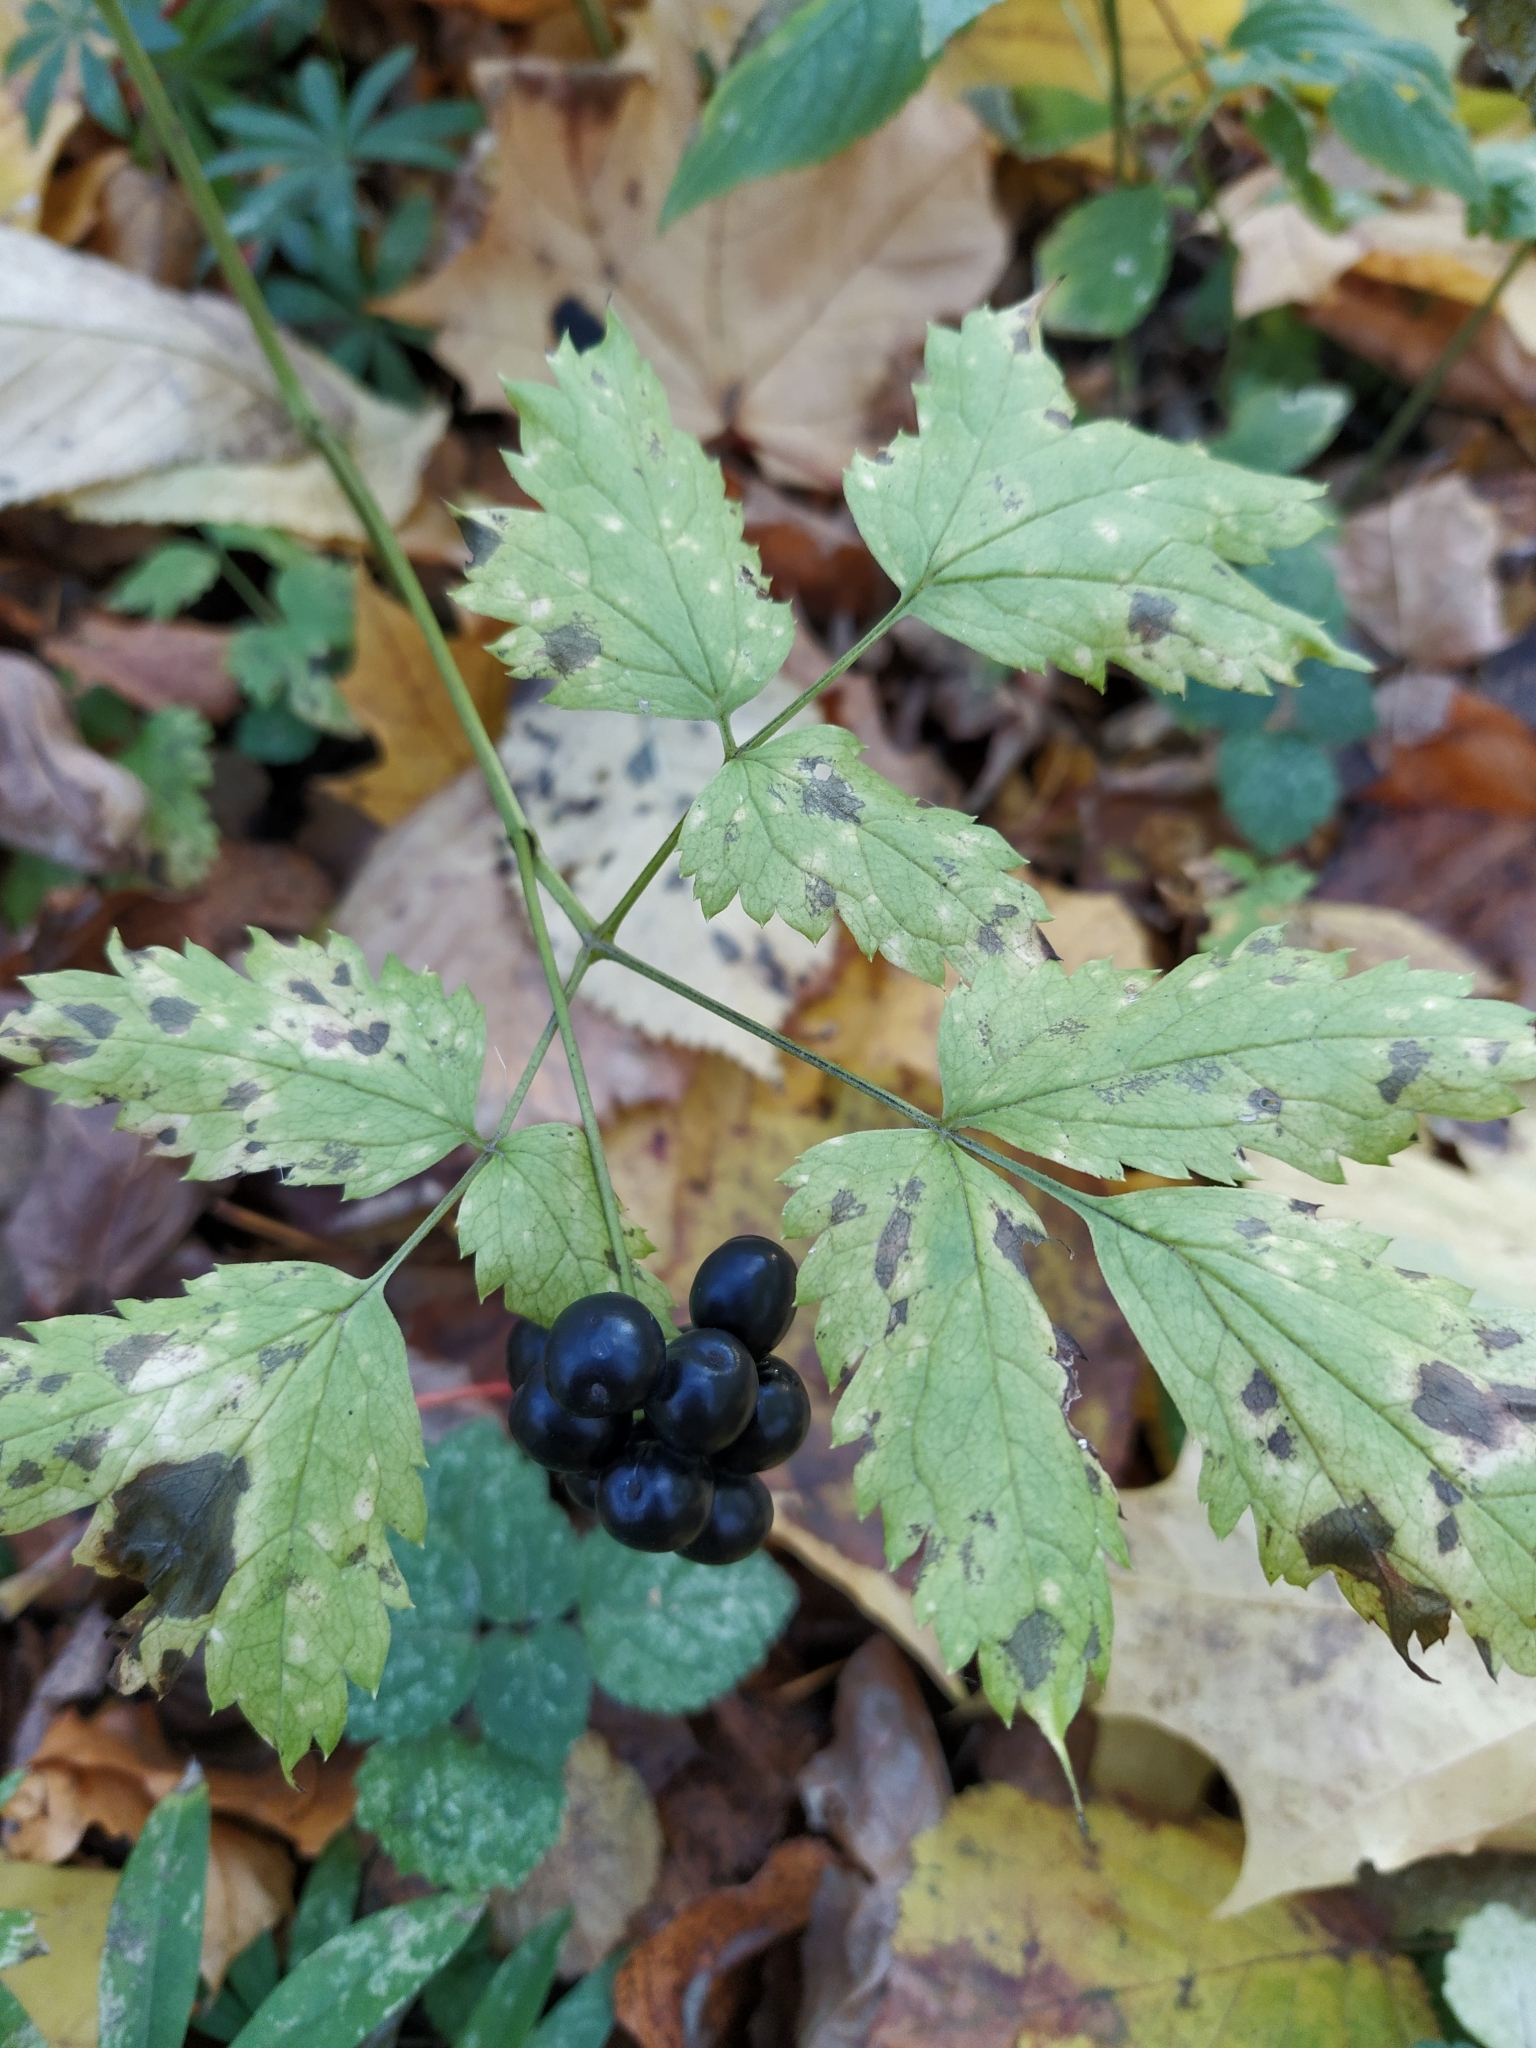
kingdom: Plantae
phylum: Tracheophyta
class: Magnoliopsida
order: Ranunculales
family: Ranunculaceae
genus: Actaea
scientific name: Actaea spicata
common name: Baneberry
